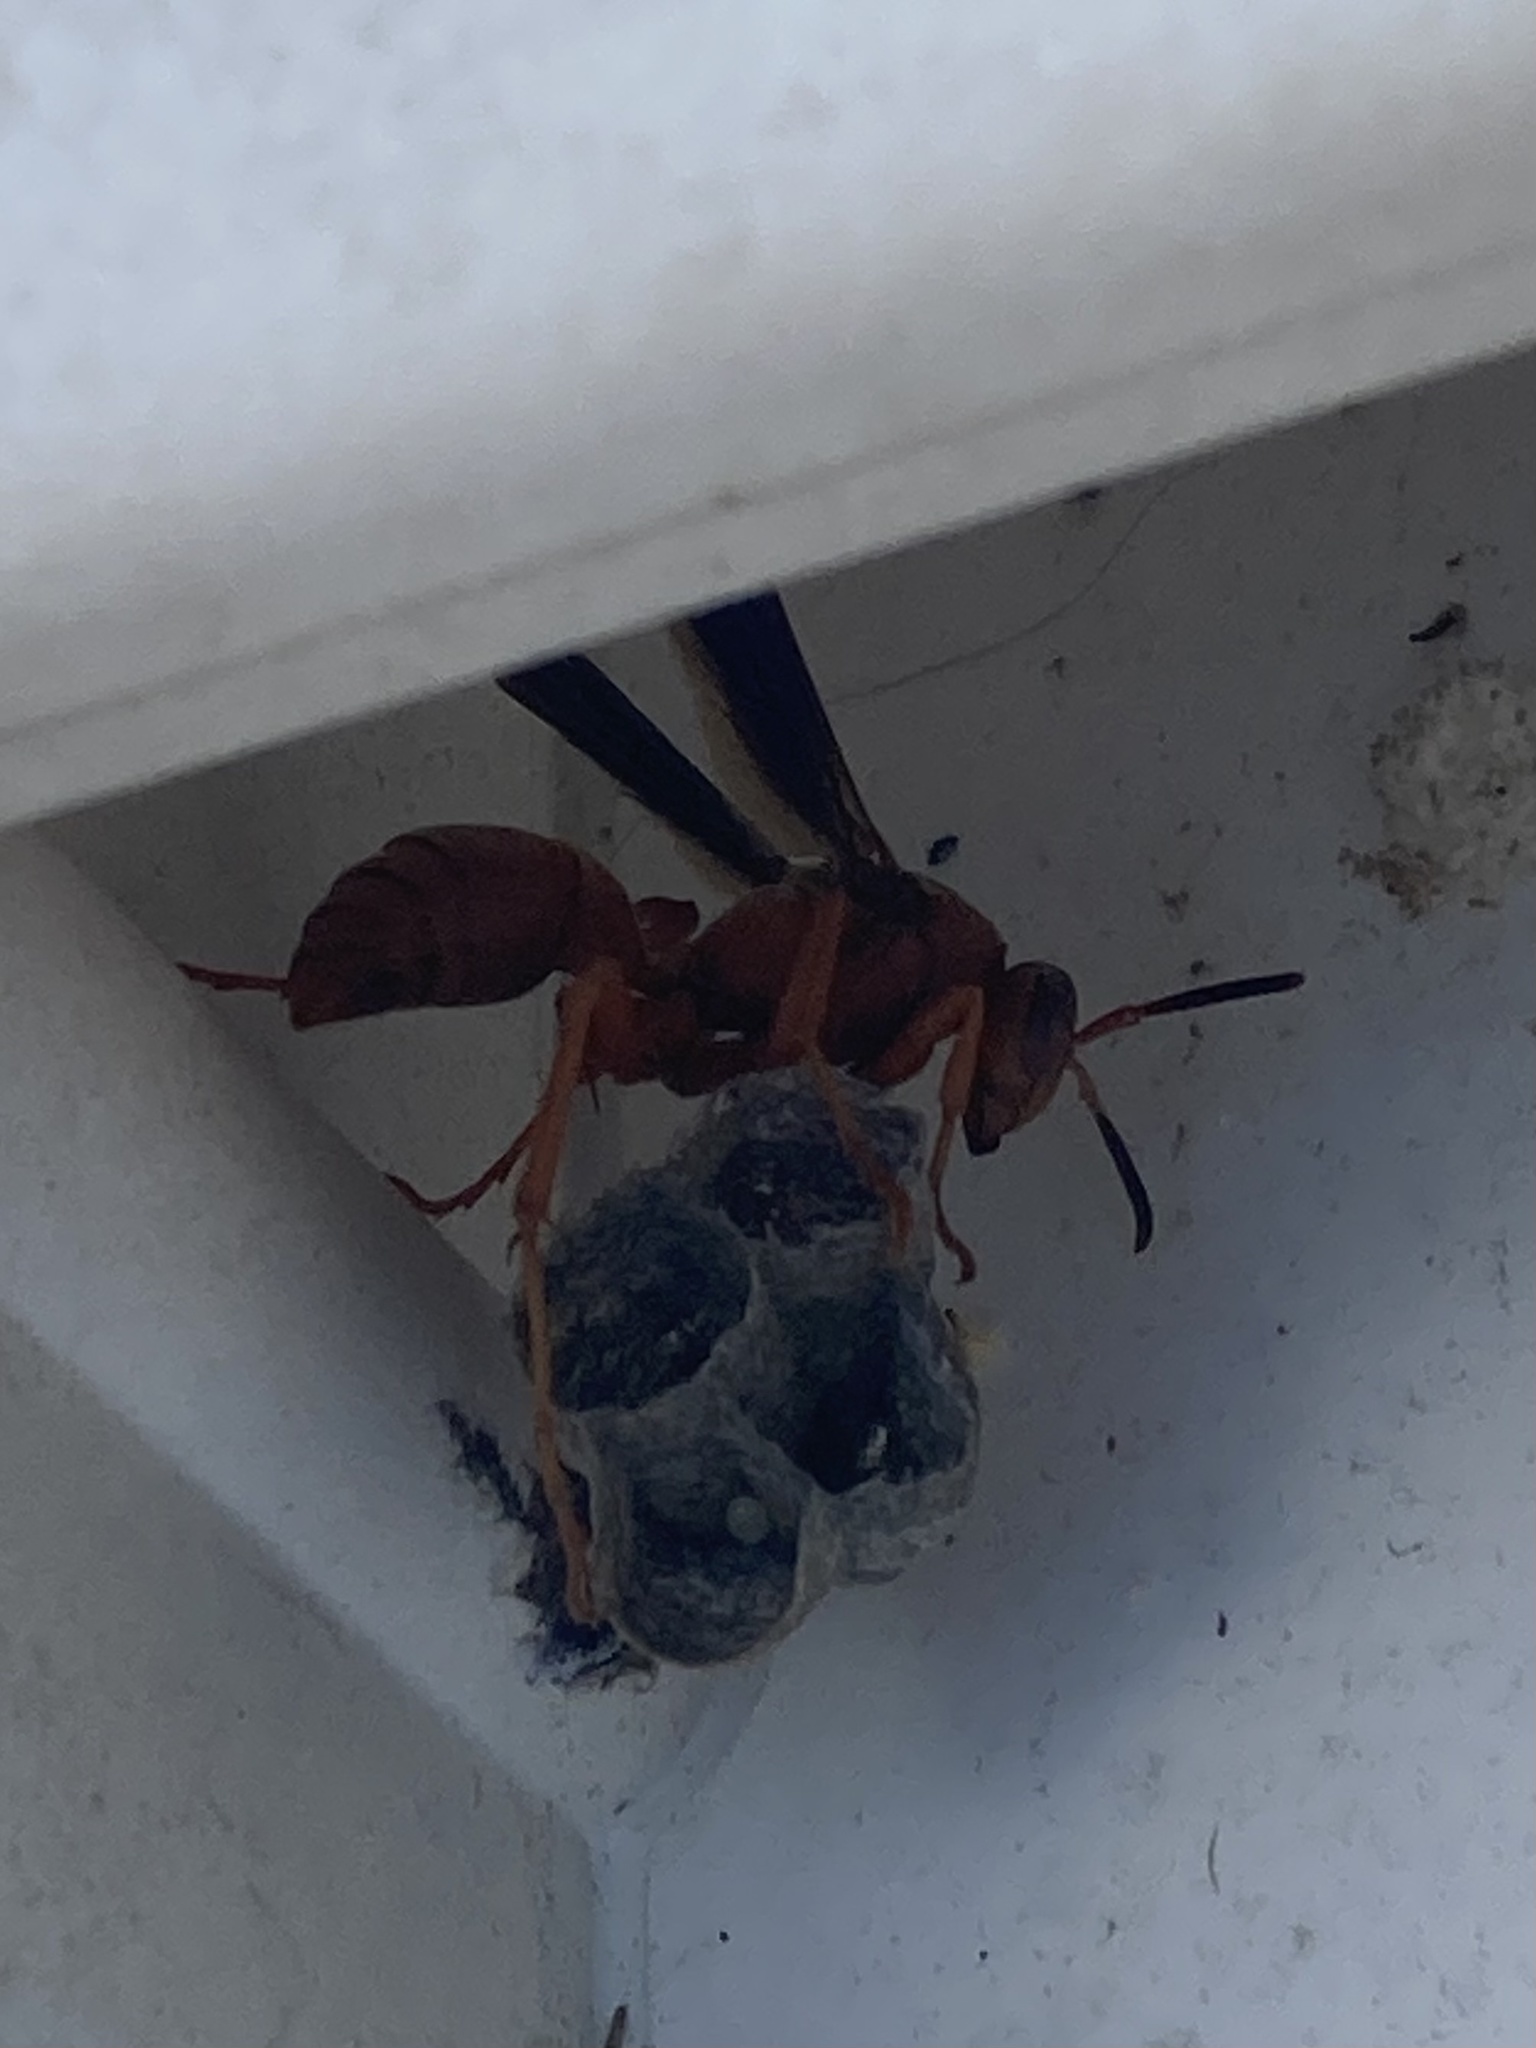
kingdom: Animalia
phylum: Arthropoda
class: Insecta
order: Hymenoptera
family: Eumenidae
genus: Polistes
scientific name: Polistes carolina
